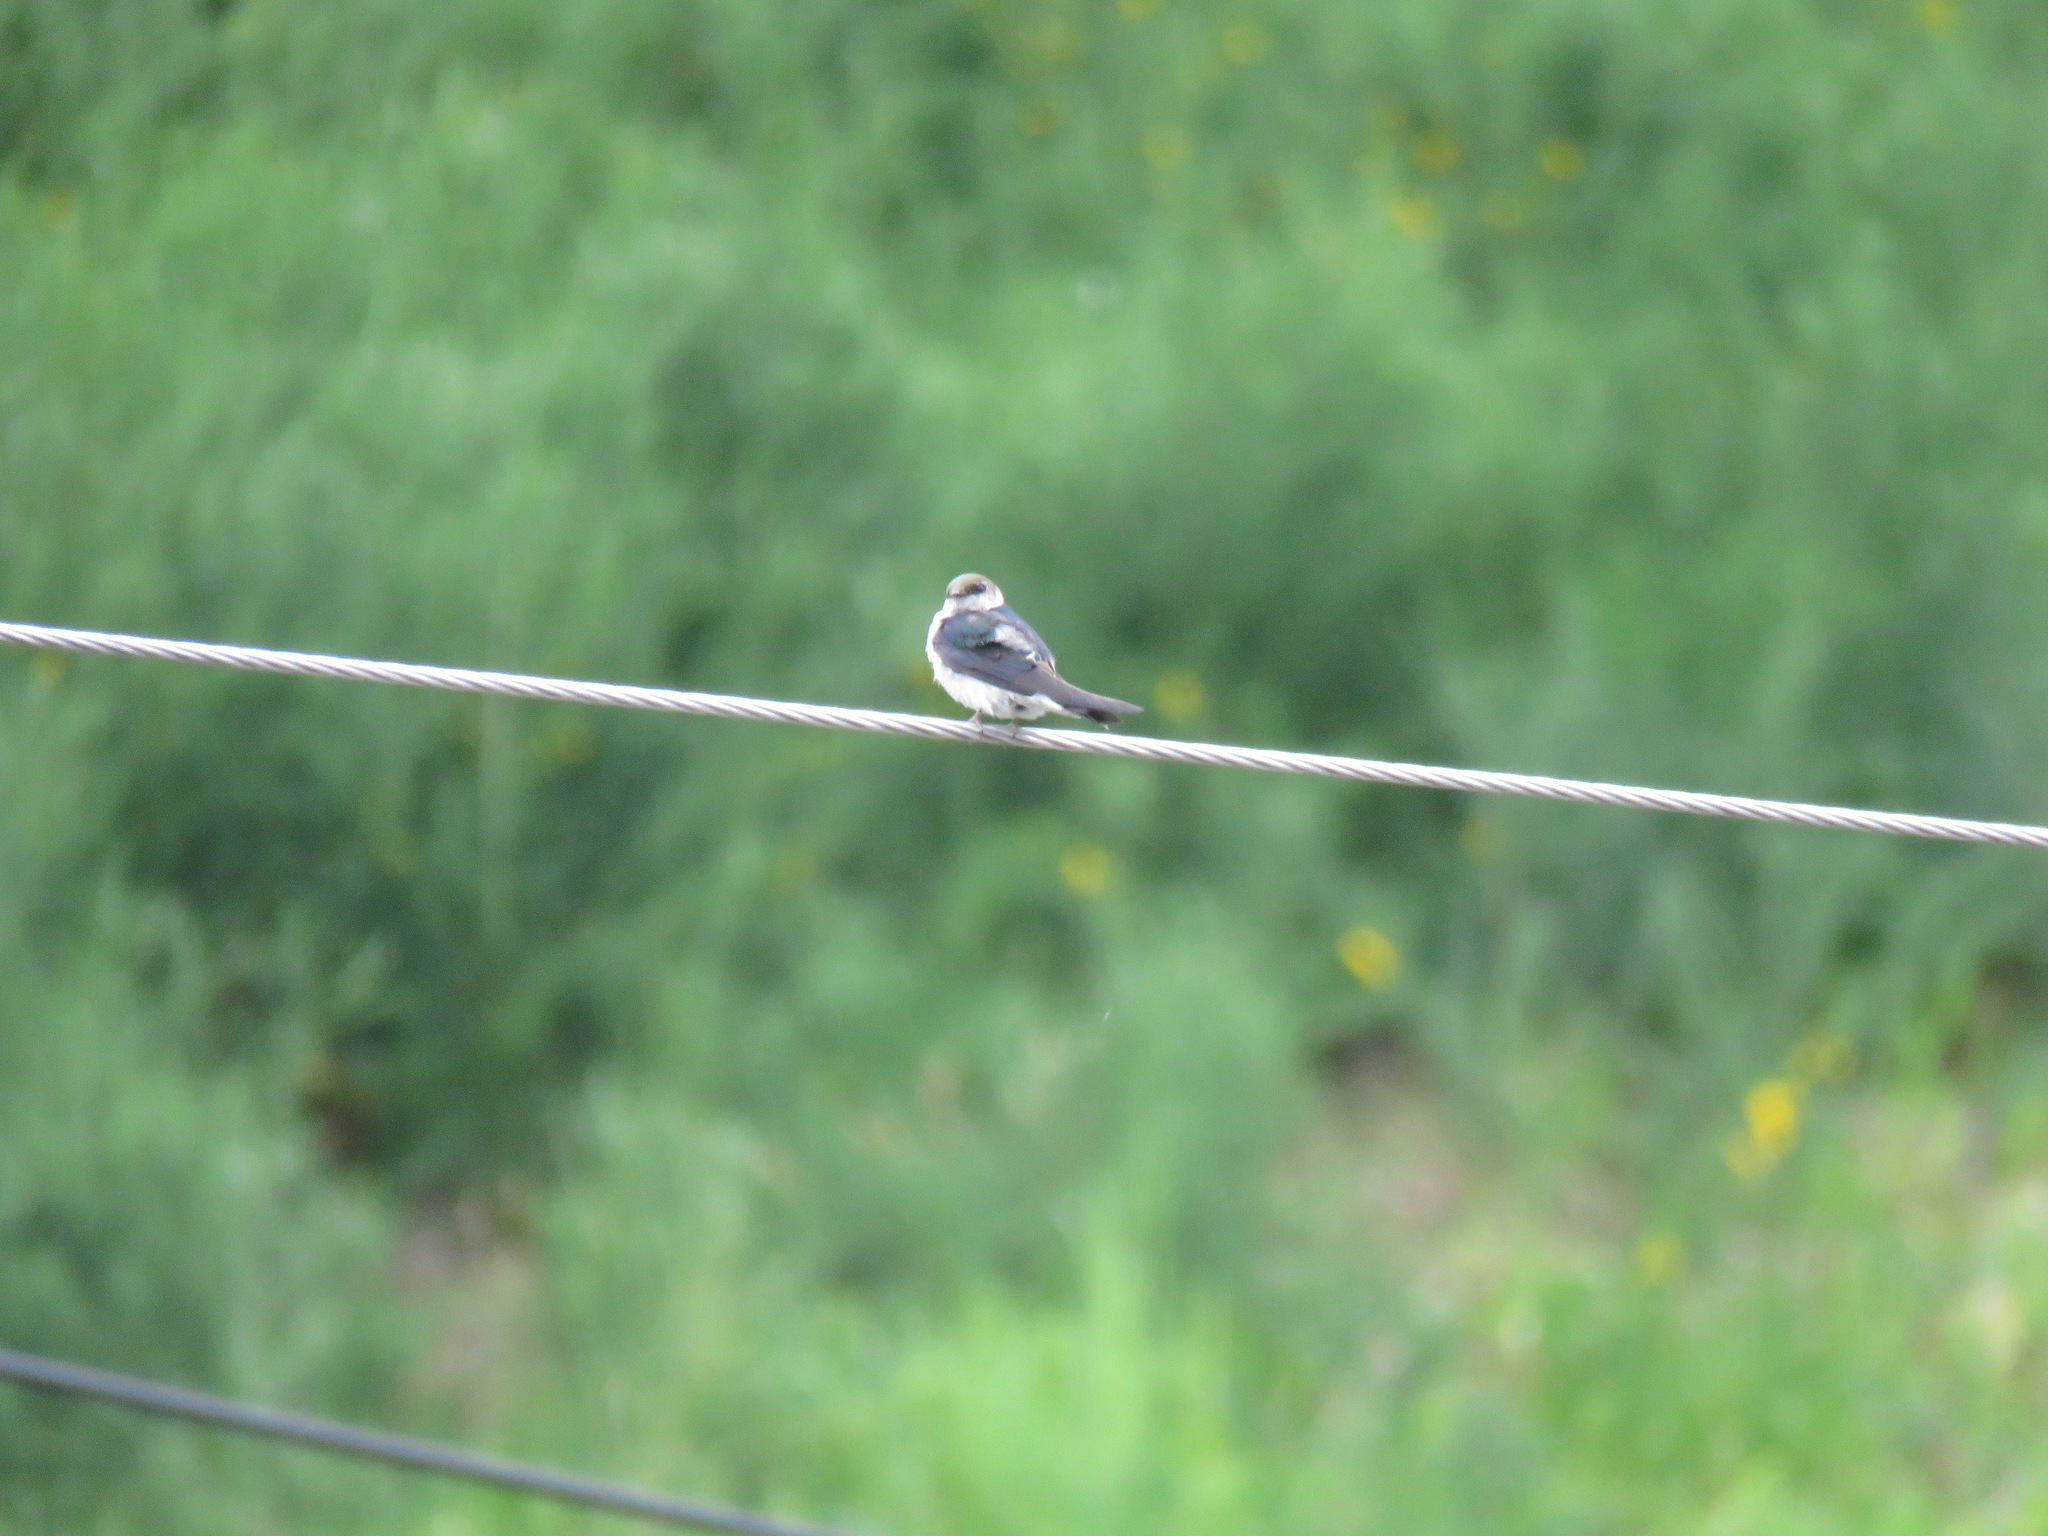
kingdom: Animalia
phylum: Chordata
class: Aves
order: Passeriformes
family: Hirundinidae
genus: Tachycineta
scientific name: Tachycineta thalassina
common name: Violet-green swallow
